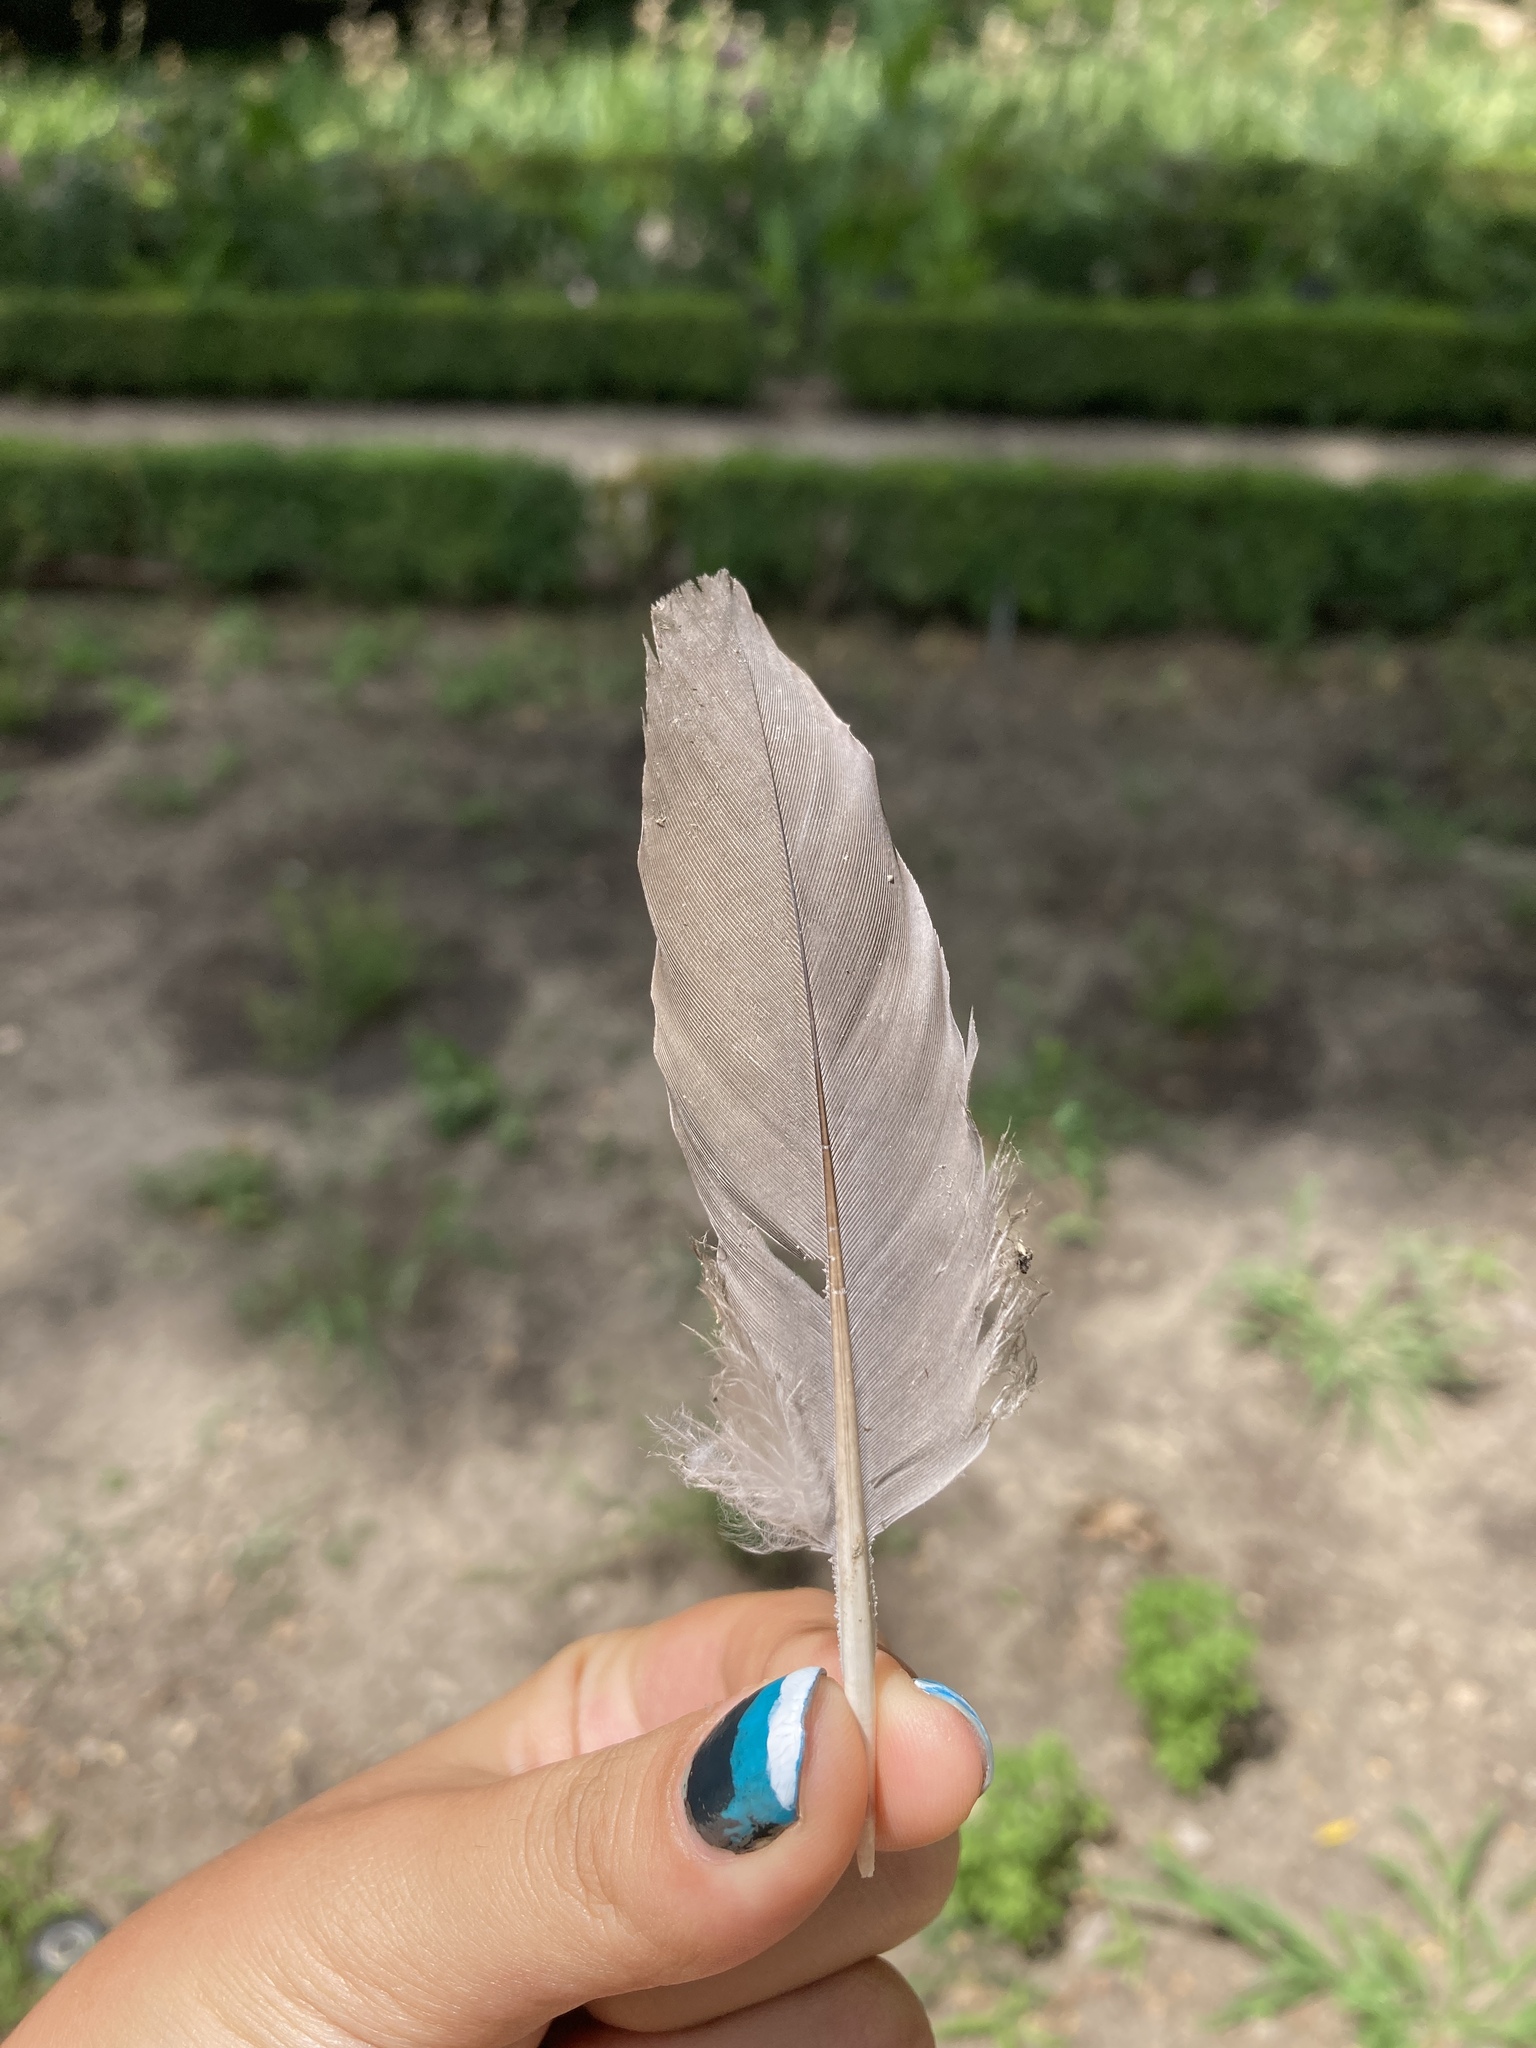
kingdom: Animalia
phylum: Chordata
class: Aves
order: Columbiformes
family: Columbidae
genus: Columba
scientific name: Columba palumbus
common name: Common wood pigeon
